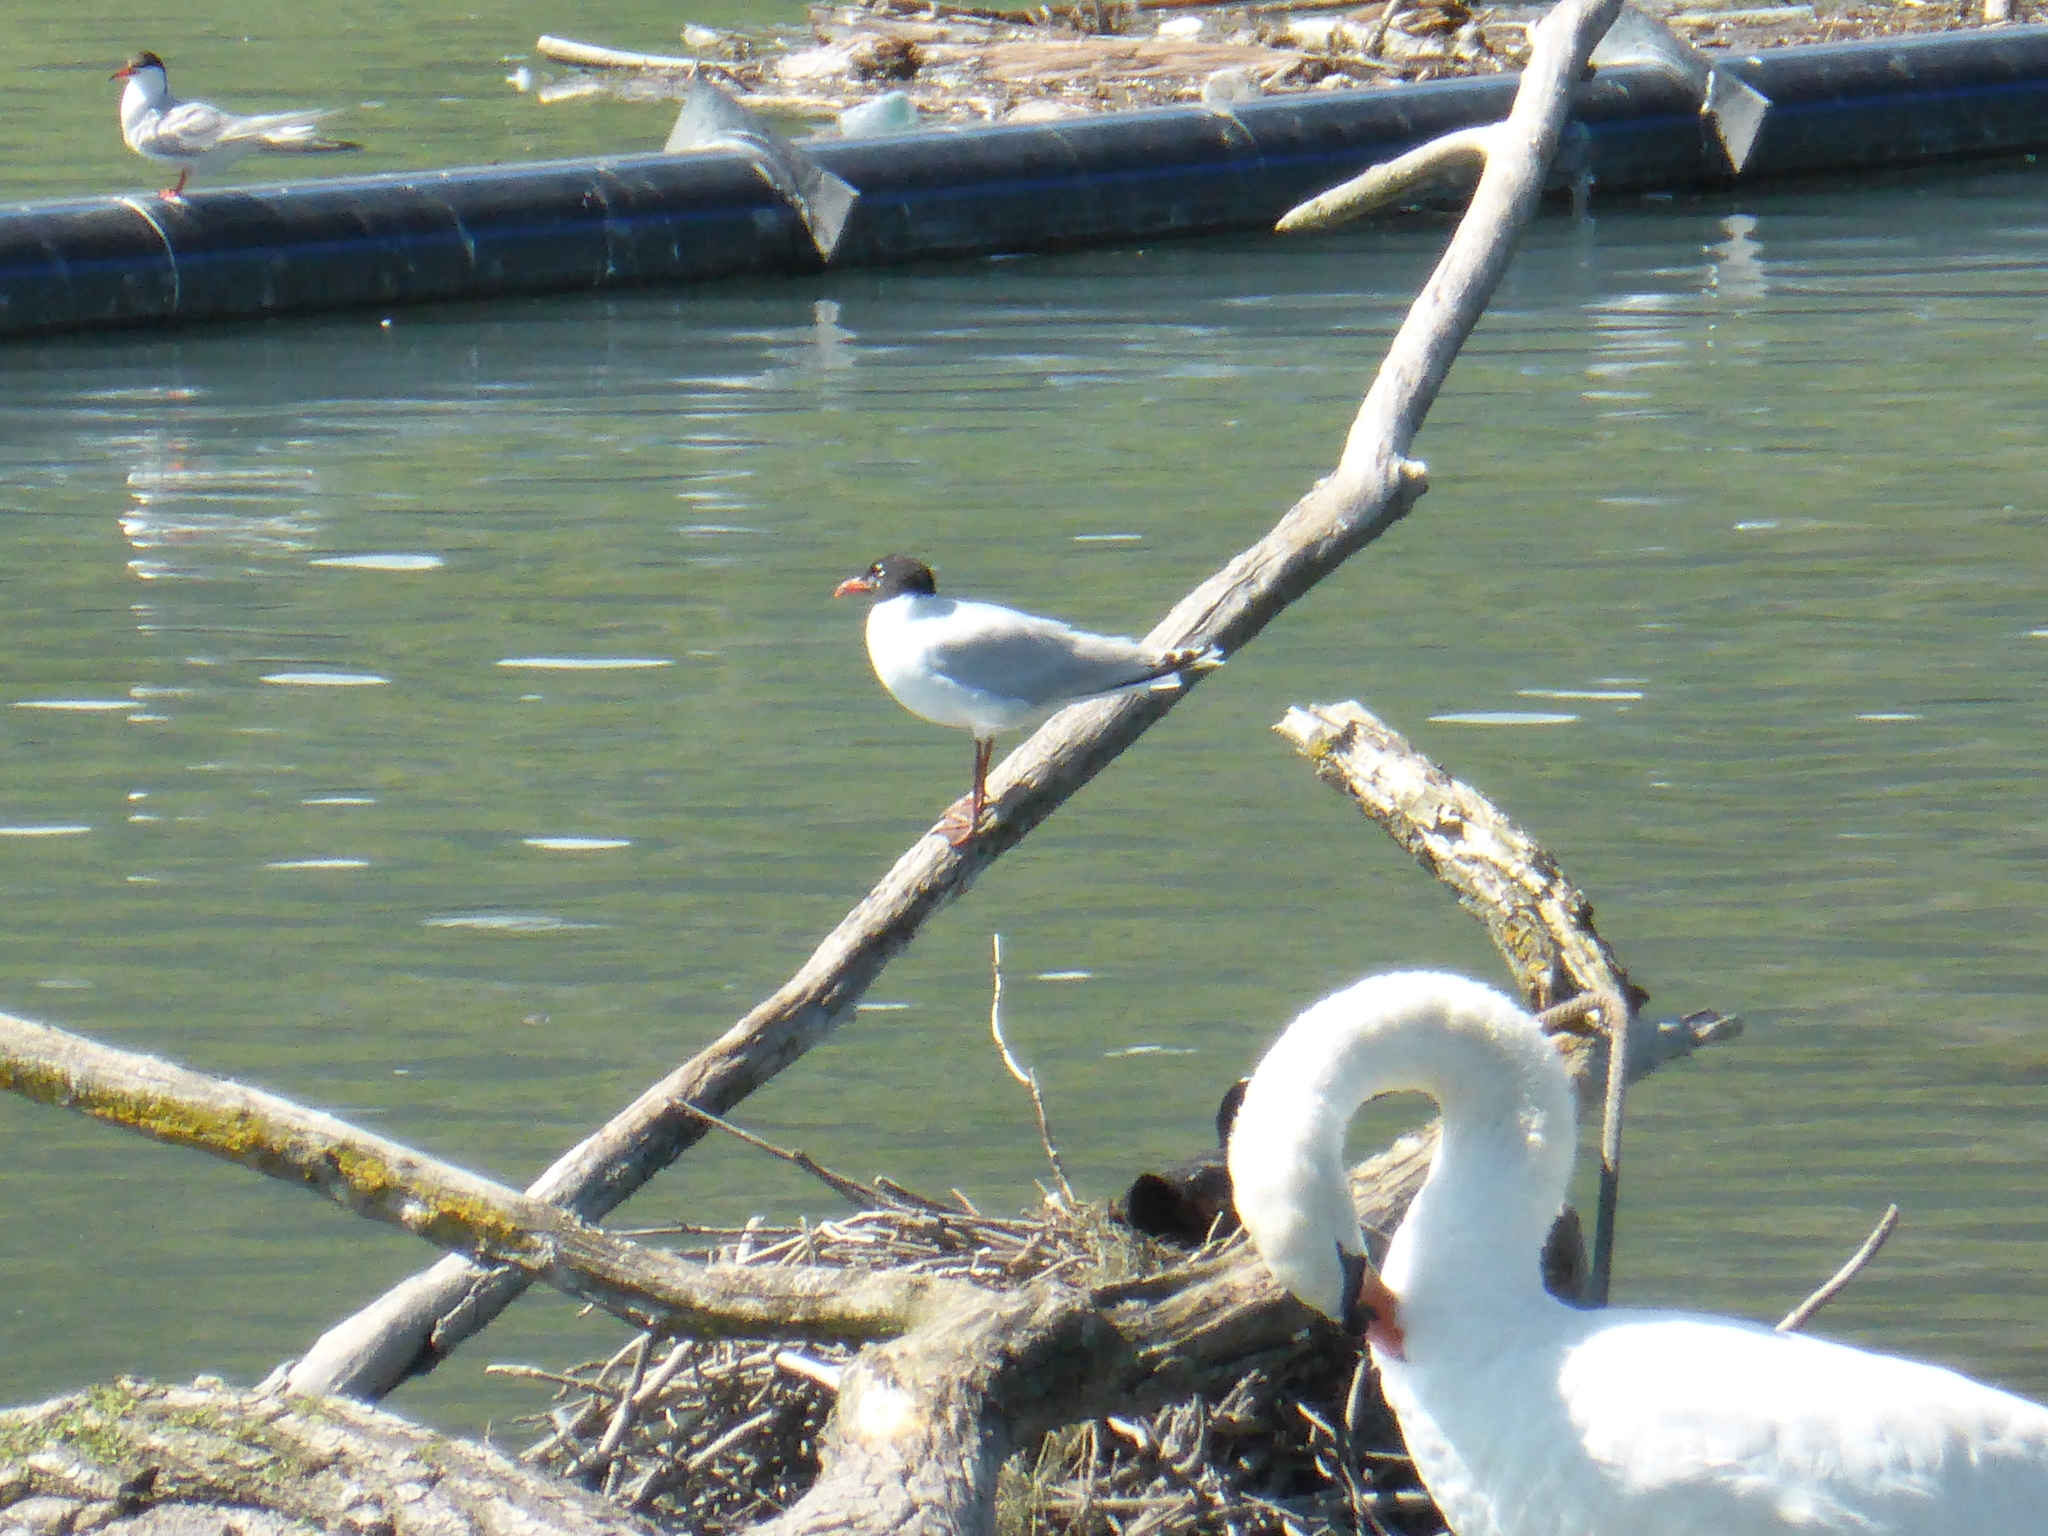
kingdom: Animalia
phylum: Chordata
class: Aves
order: Charadriiformes
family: Laridae
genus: Ichthyaetus
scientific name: Ichthyaetus melanocephalus
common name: Mediterranean gull
